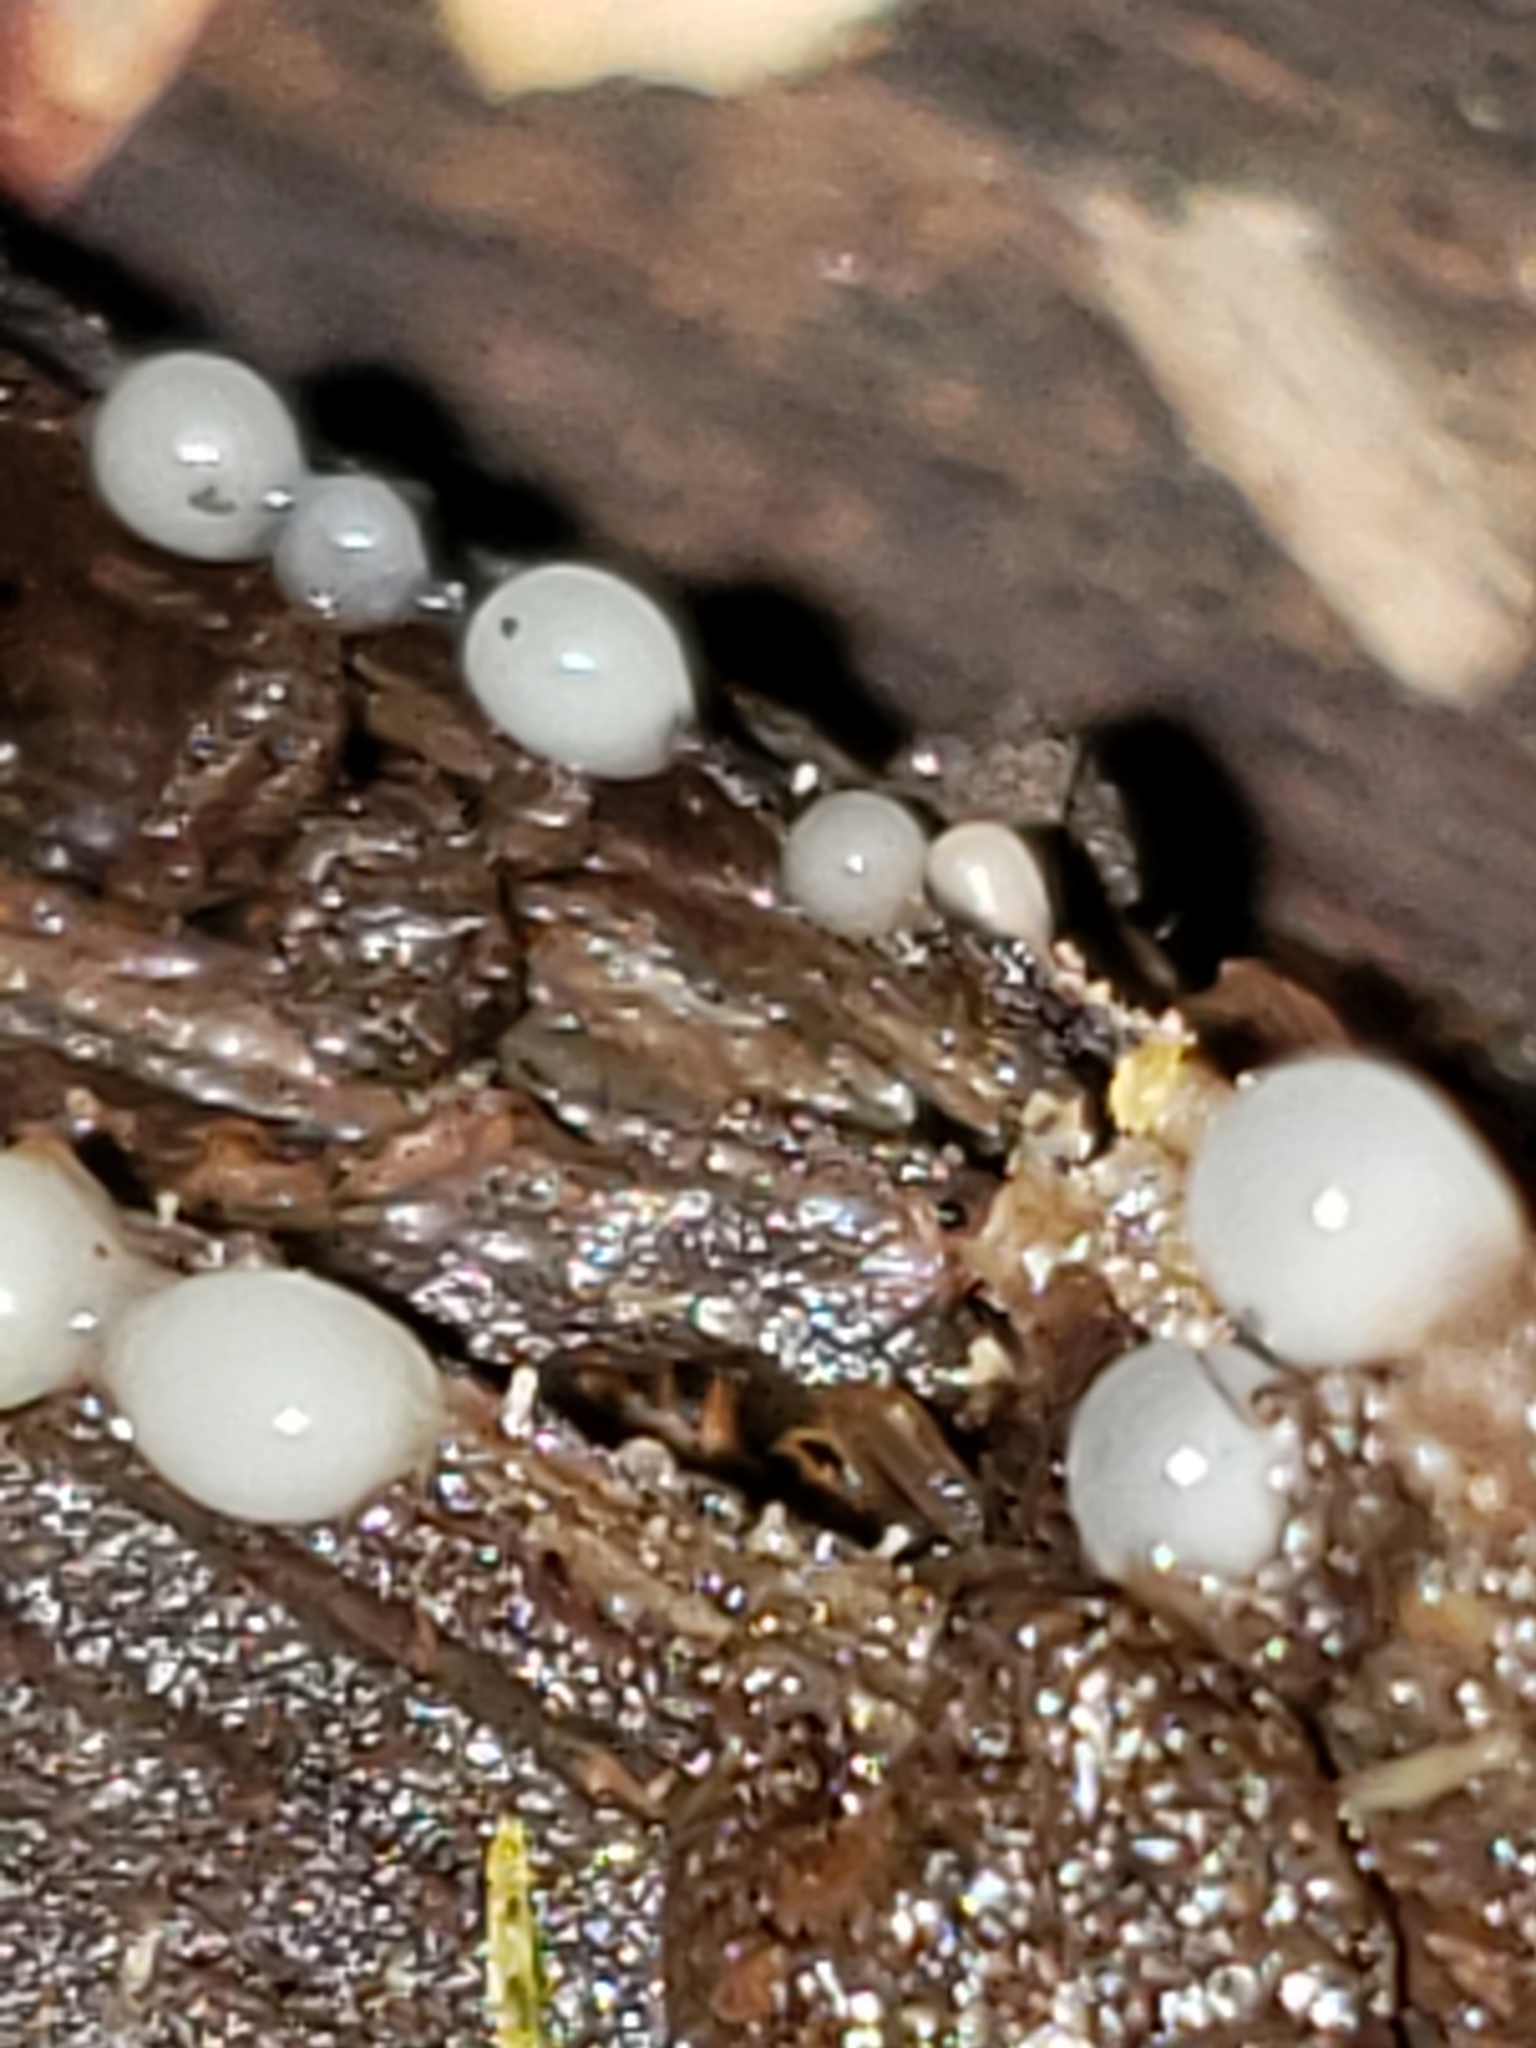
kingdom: Fungi
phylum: Basidiomycota
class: Atractiellomycetes
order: Atractiellales
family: Phleogenaceae
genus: Helicogloea
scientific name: Helicogloea compressa
